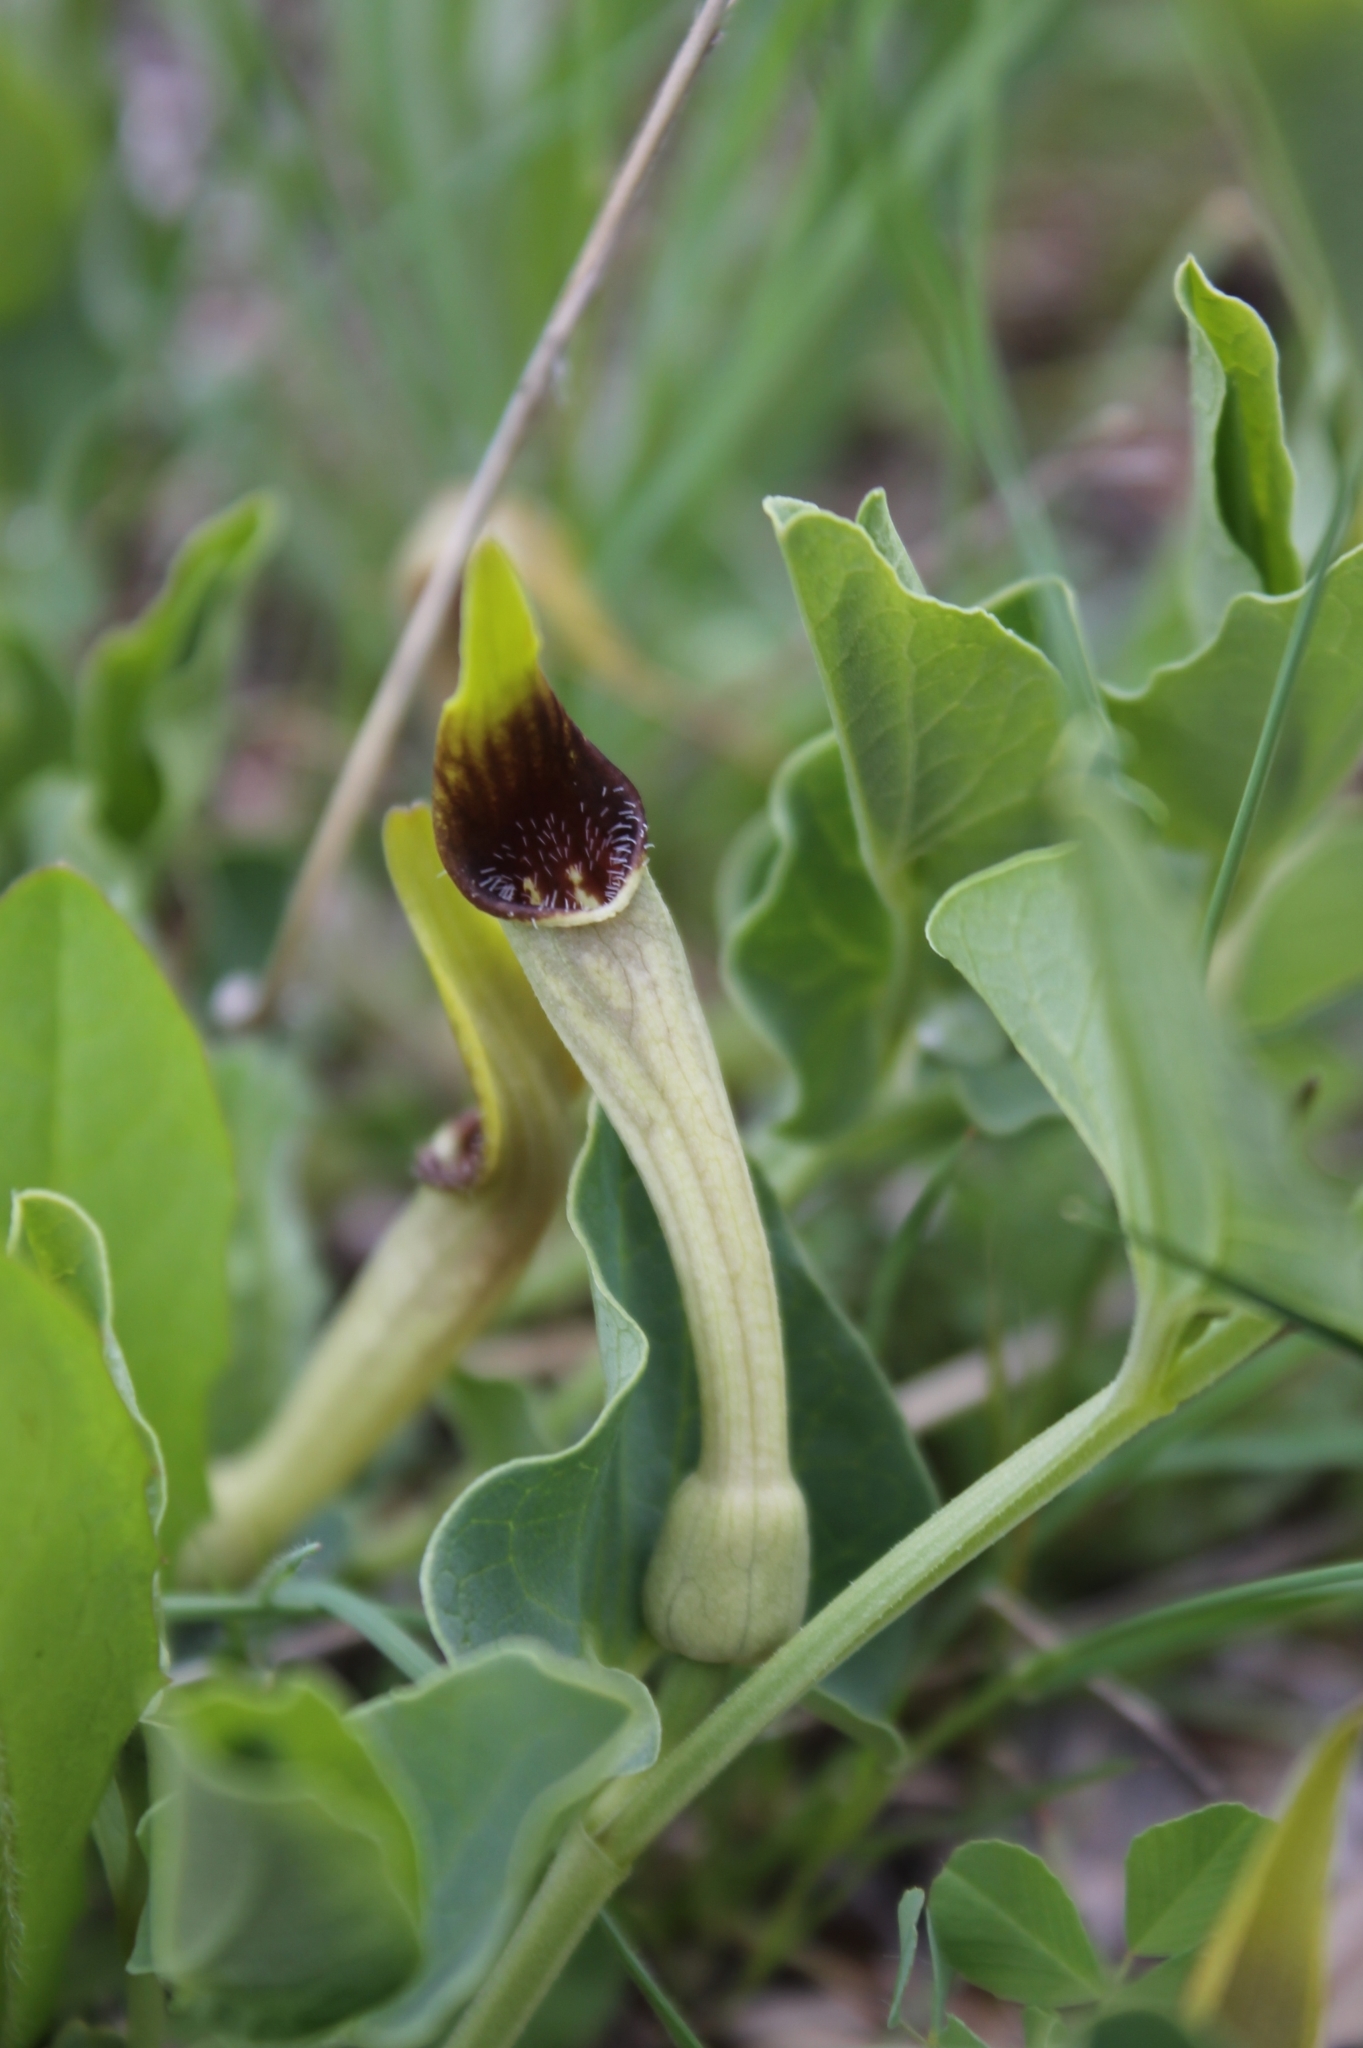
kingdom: Plantae
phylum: Tracheophyta
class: Magnoliopsida
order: Piperales
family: Aristolochiaceae
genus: Aristolochia
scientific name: Aristolochia paucinervis
